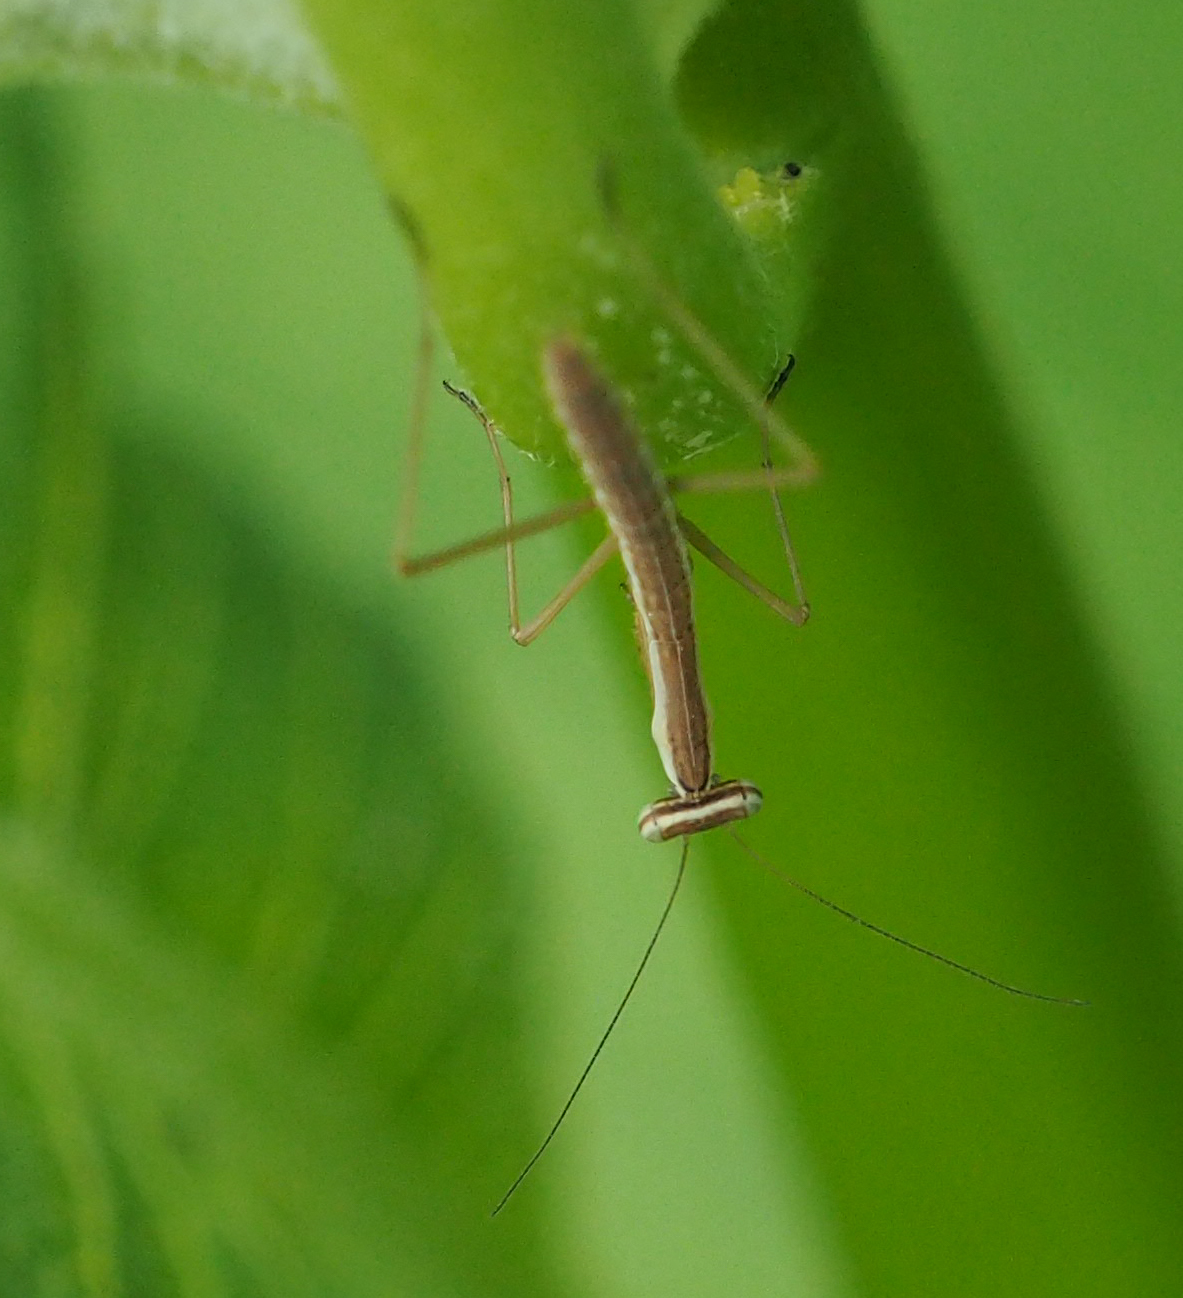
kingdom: Animalia
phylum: Arthropoda
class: Insecta
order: Mantodea
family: Mantidae
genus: Tenodera
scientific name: Tenodera sinensis
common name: Chinese mantis
